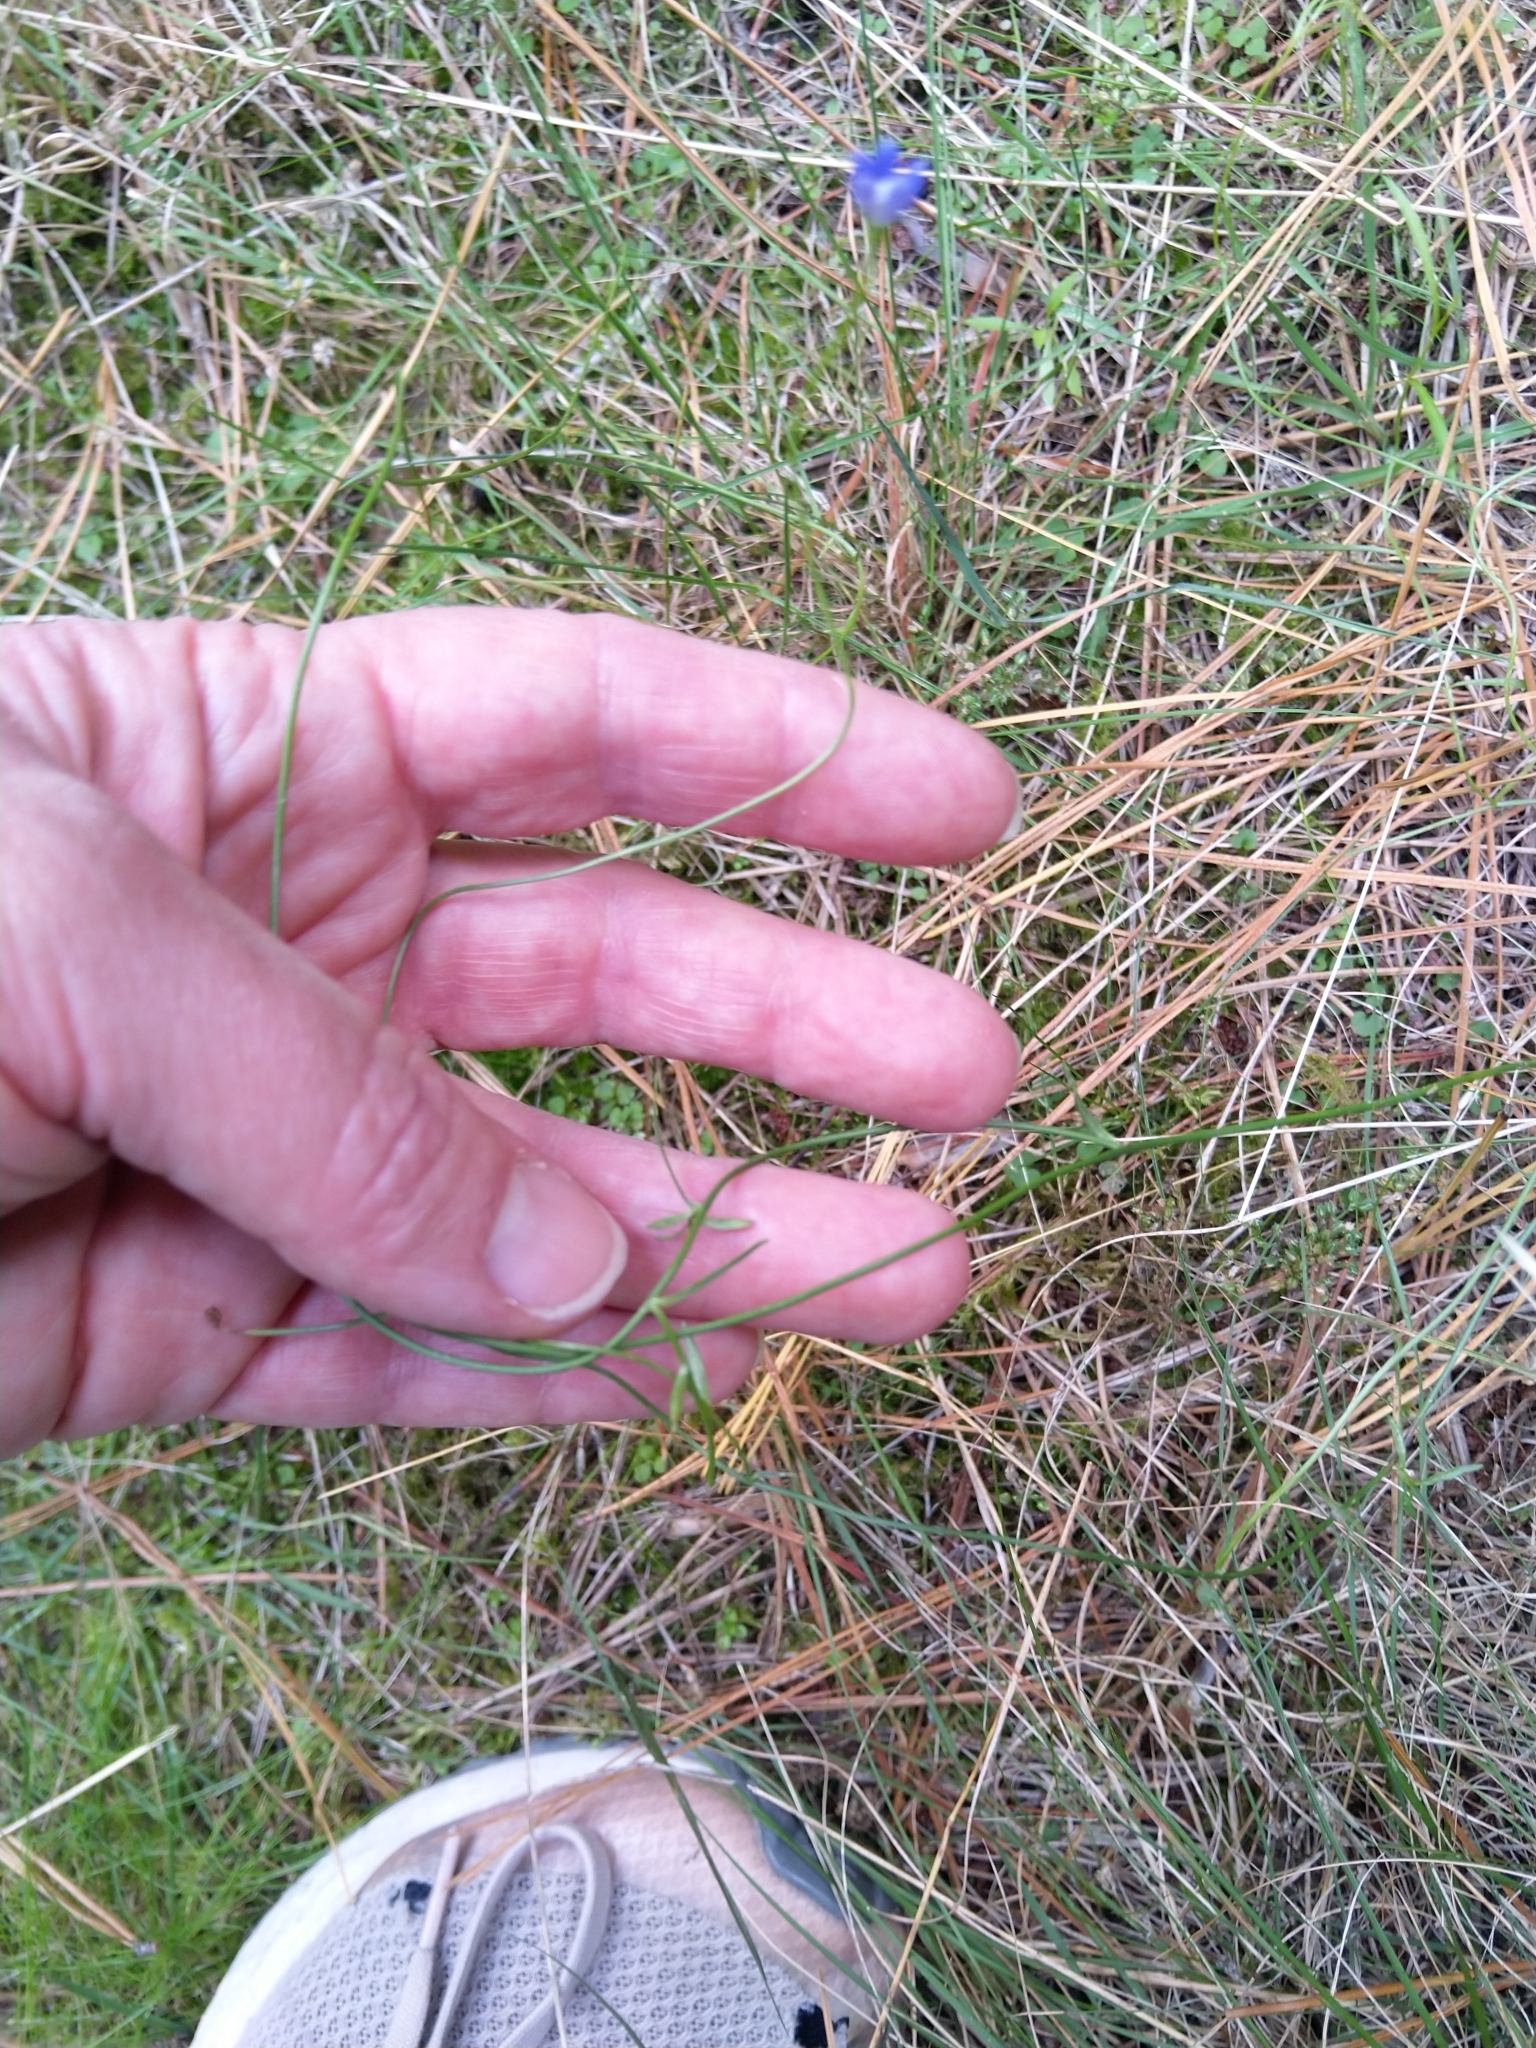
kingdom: Plantae
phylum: Tracheophyta
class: Magnoliopsida
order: Asterales
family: Campanulaceae
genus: Lobelia
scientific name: Lobelia erinus
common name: Edging lobelia
